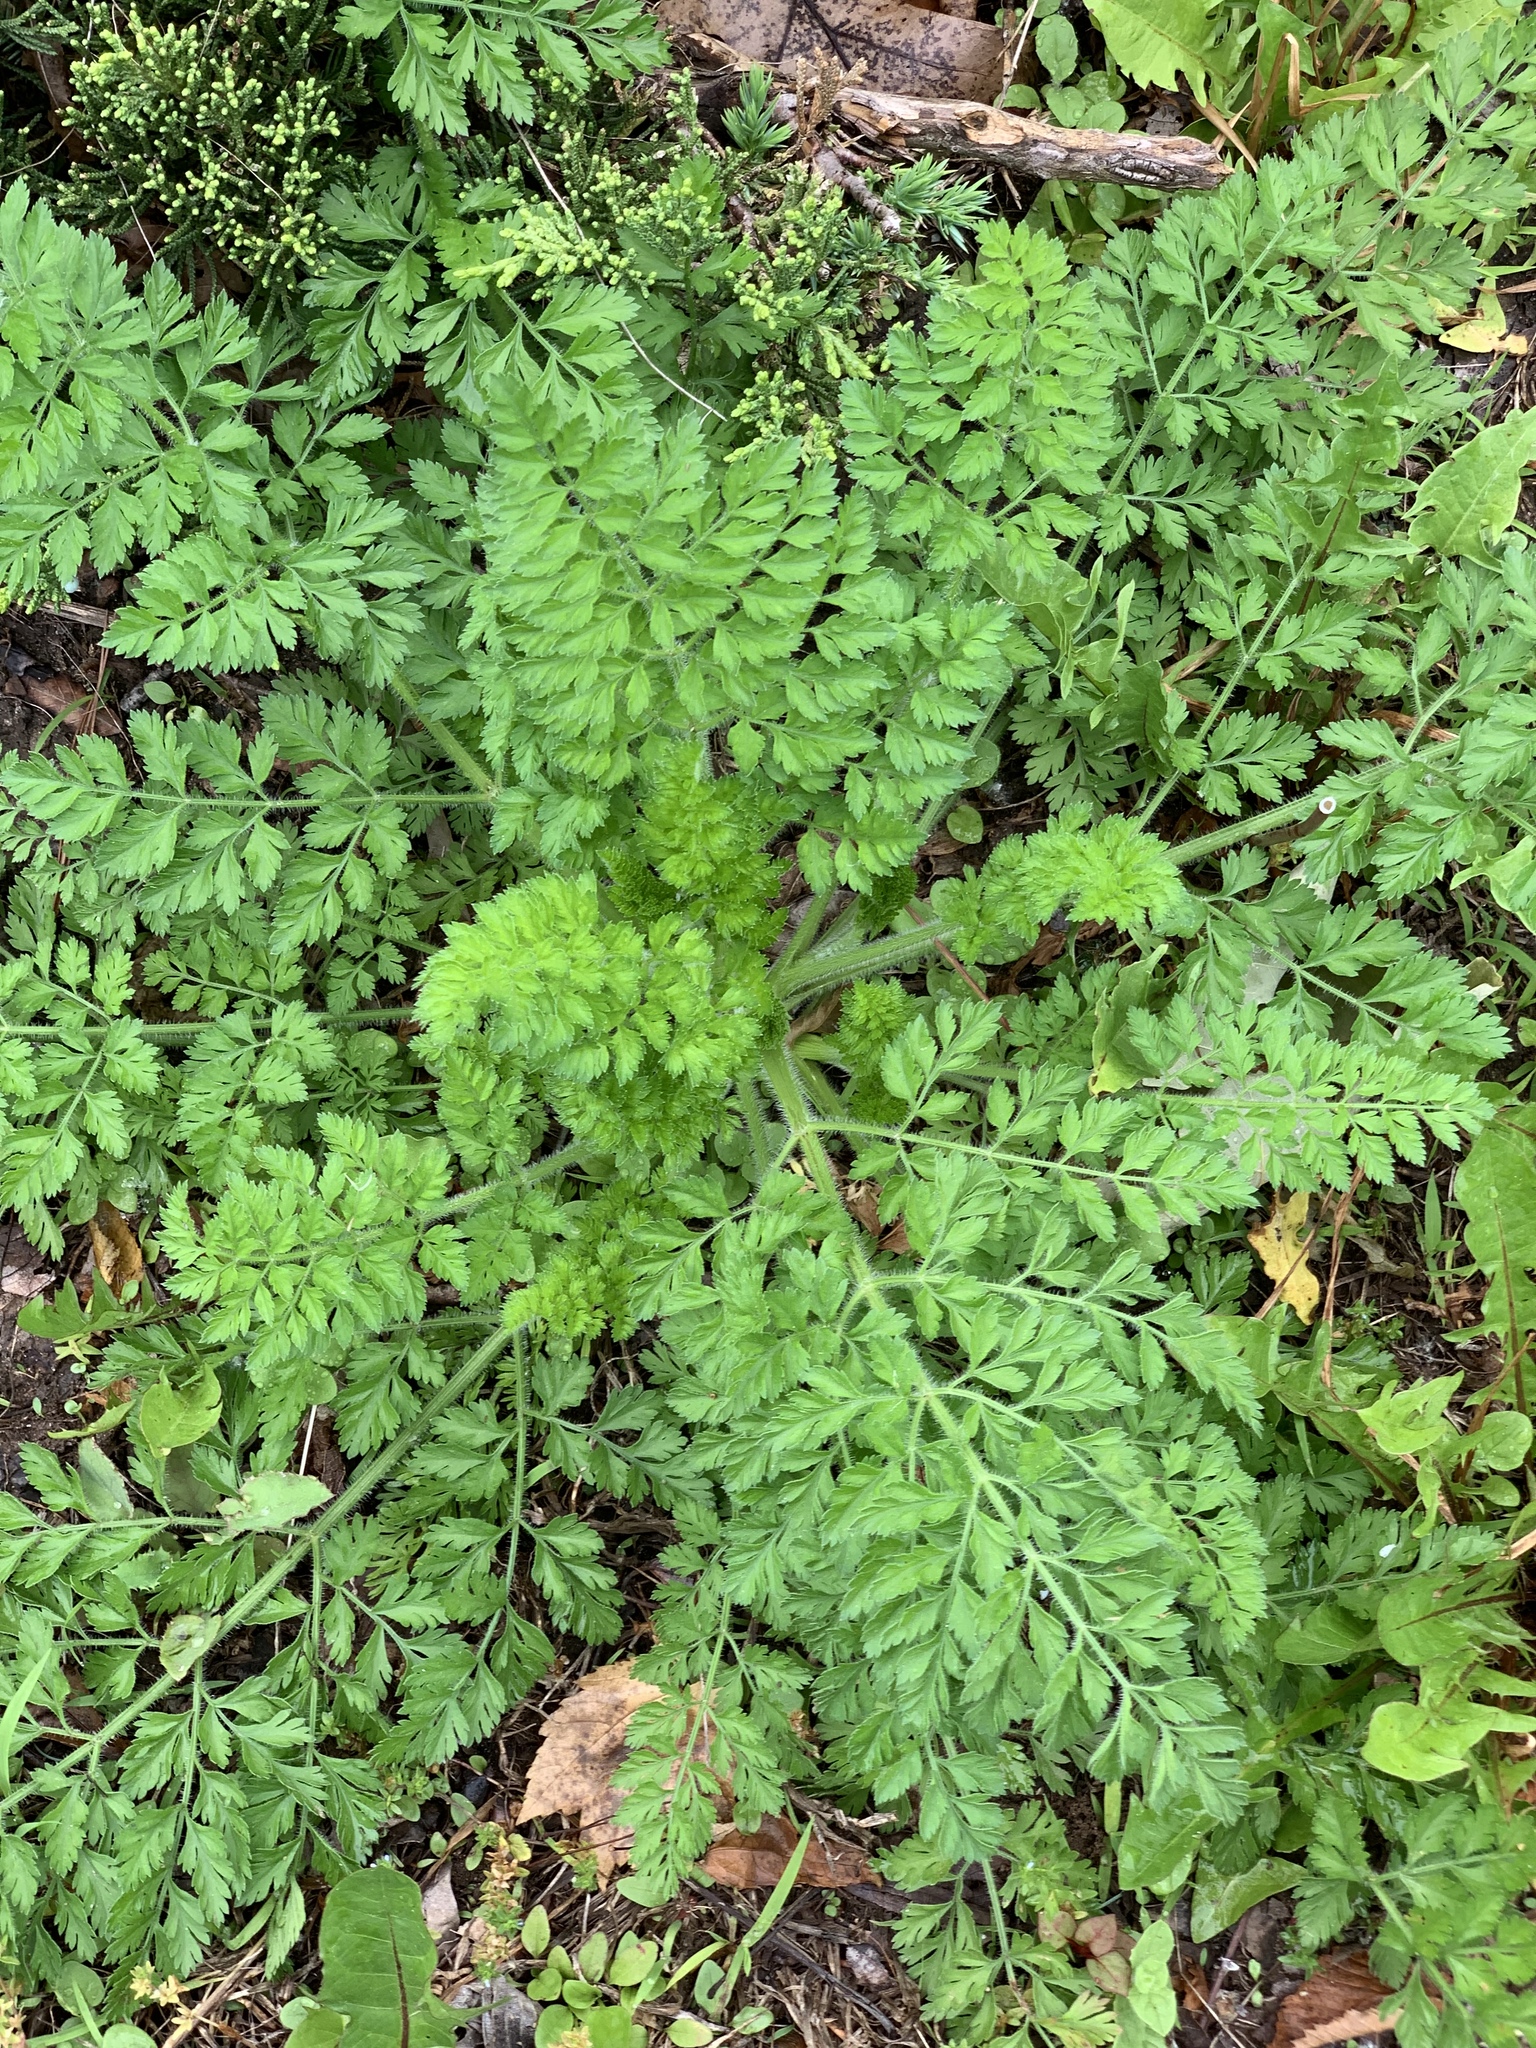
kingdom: Plantae
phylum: Tracheophyta
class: Magnoliopsida
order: Apiales
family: Apiaceae
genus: Daucus
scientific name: Daucus carota
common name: Wild carrot
